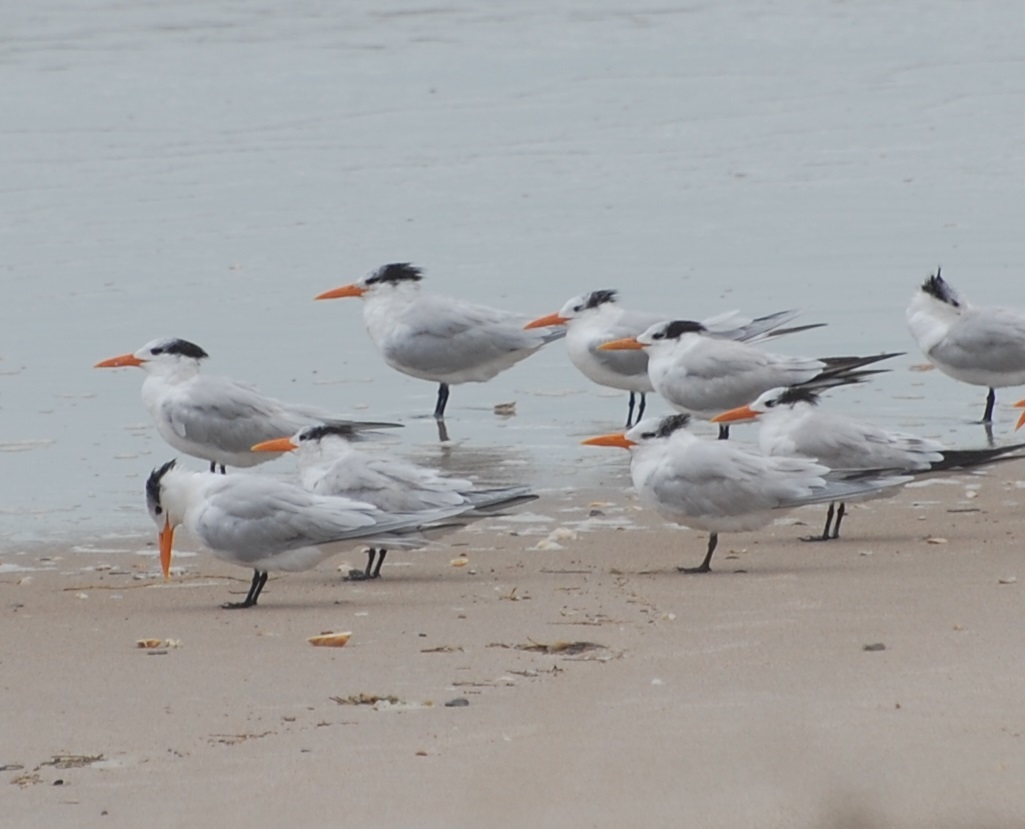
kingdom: Animalia
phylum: Chordata
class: Aves
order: Charadriiformes
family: Laridae
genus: Thalasseus
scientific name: Thalasseus maximus
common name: Royal tern
